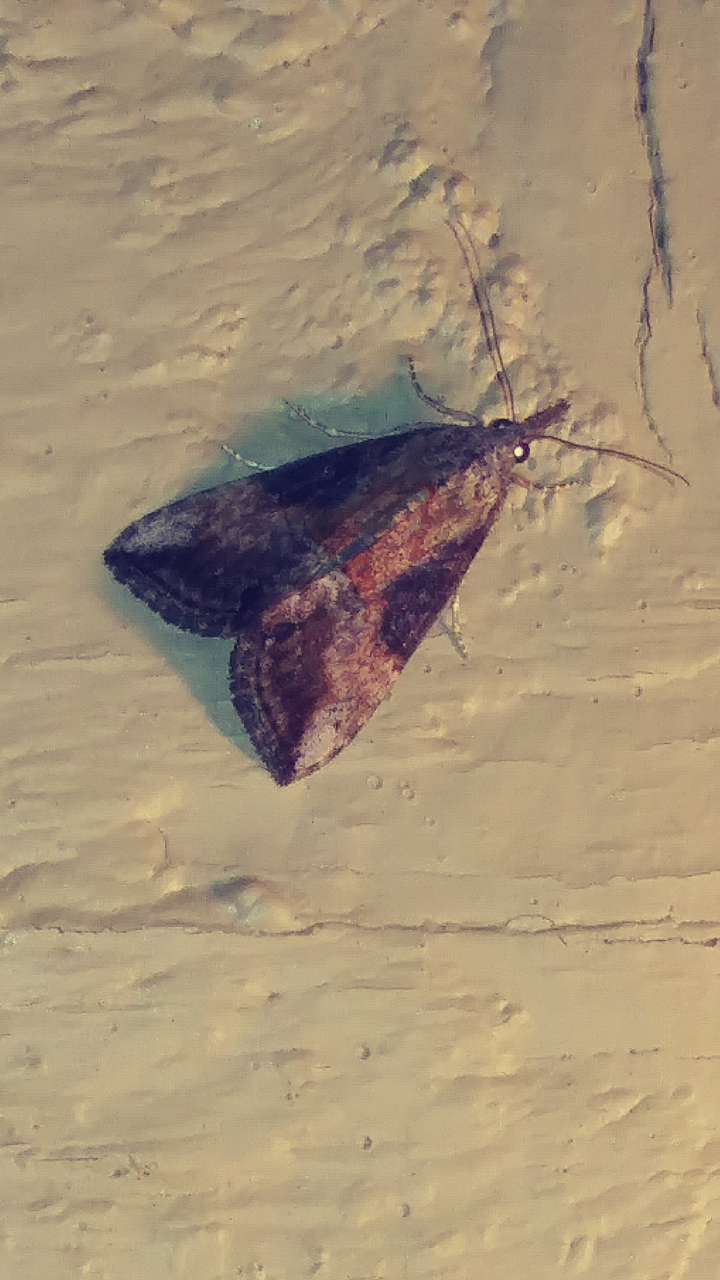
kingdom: Animalia
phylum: Arthropoda
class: Insecta
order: Lepidoptera
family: Erebidae
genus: Hypena
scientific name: Hypena scabra
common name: Green cloverworm
